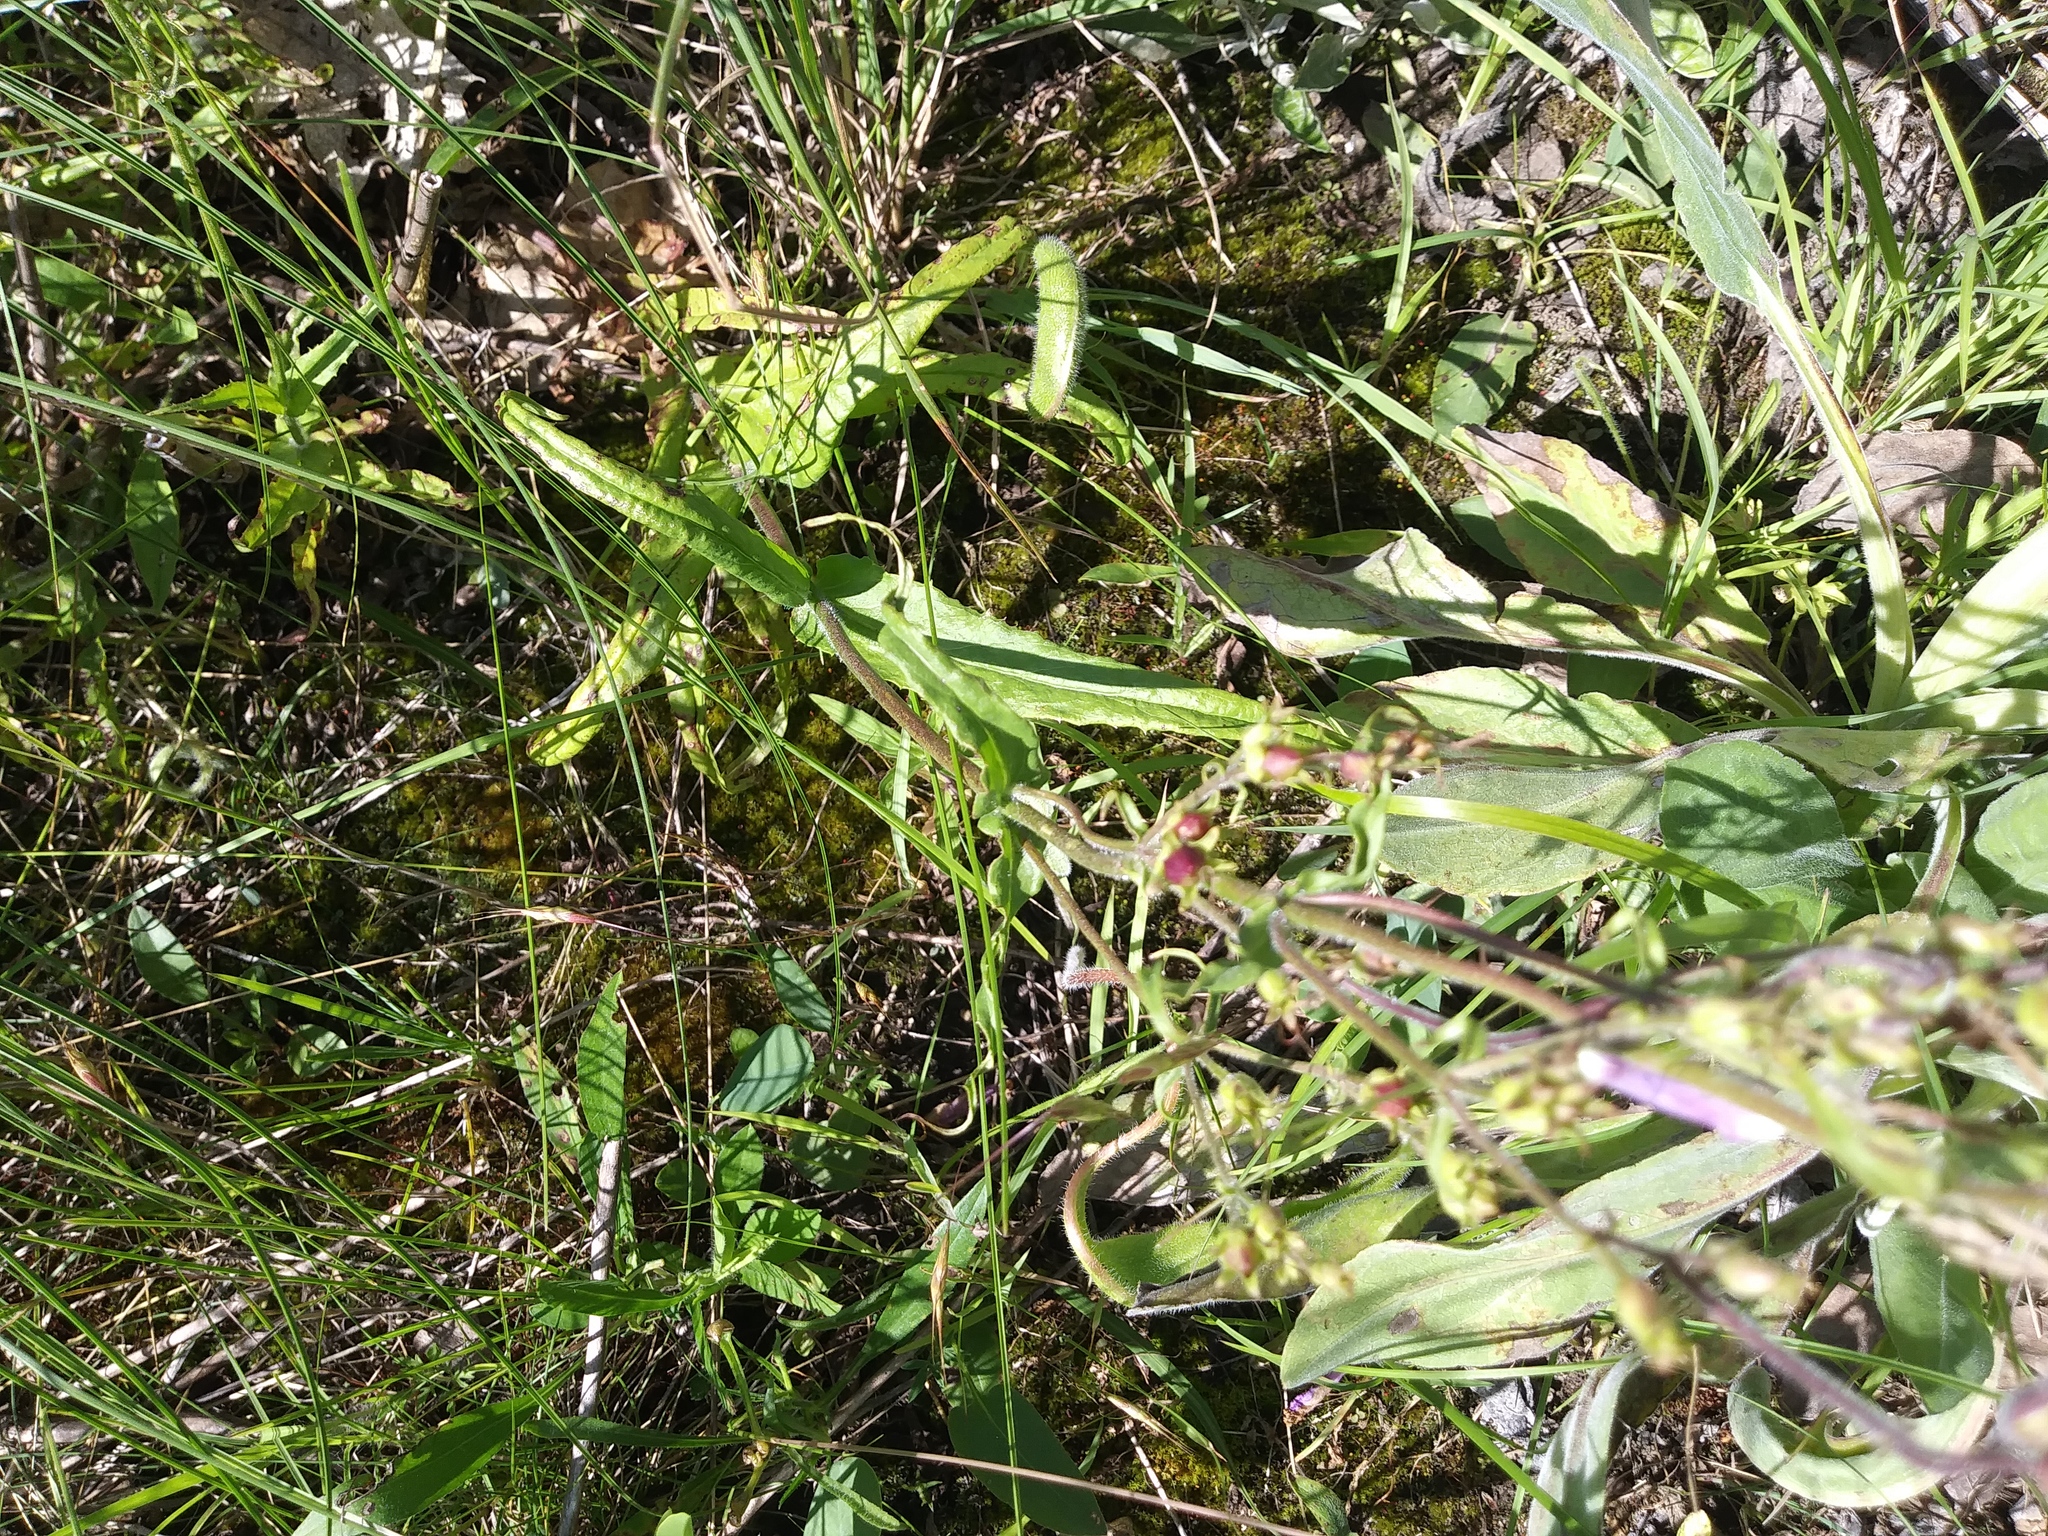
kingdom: Plantae
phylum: Tracheophyta
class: Magnoliopsida
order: Lamiales
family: Plantaginaceae
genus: Penstemon
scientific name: Penstemon hirsutus
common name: Hairy beardtongue
